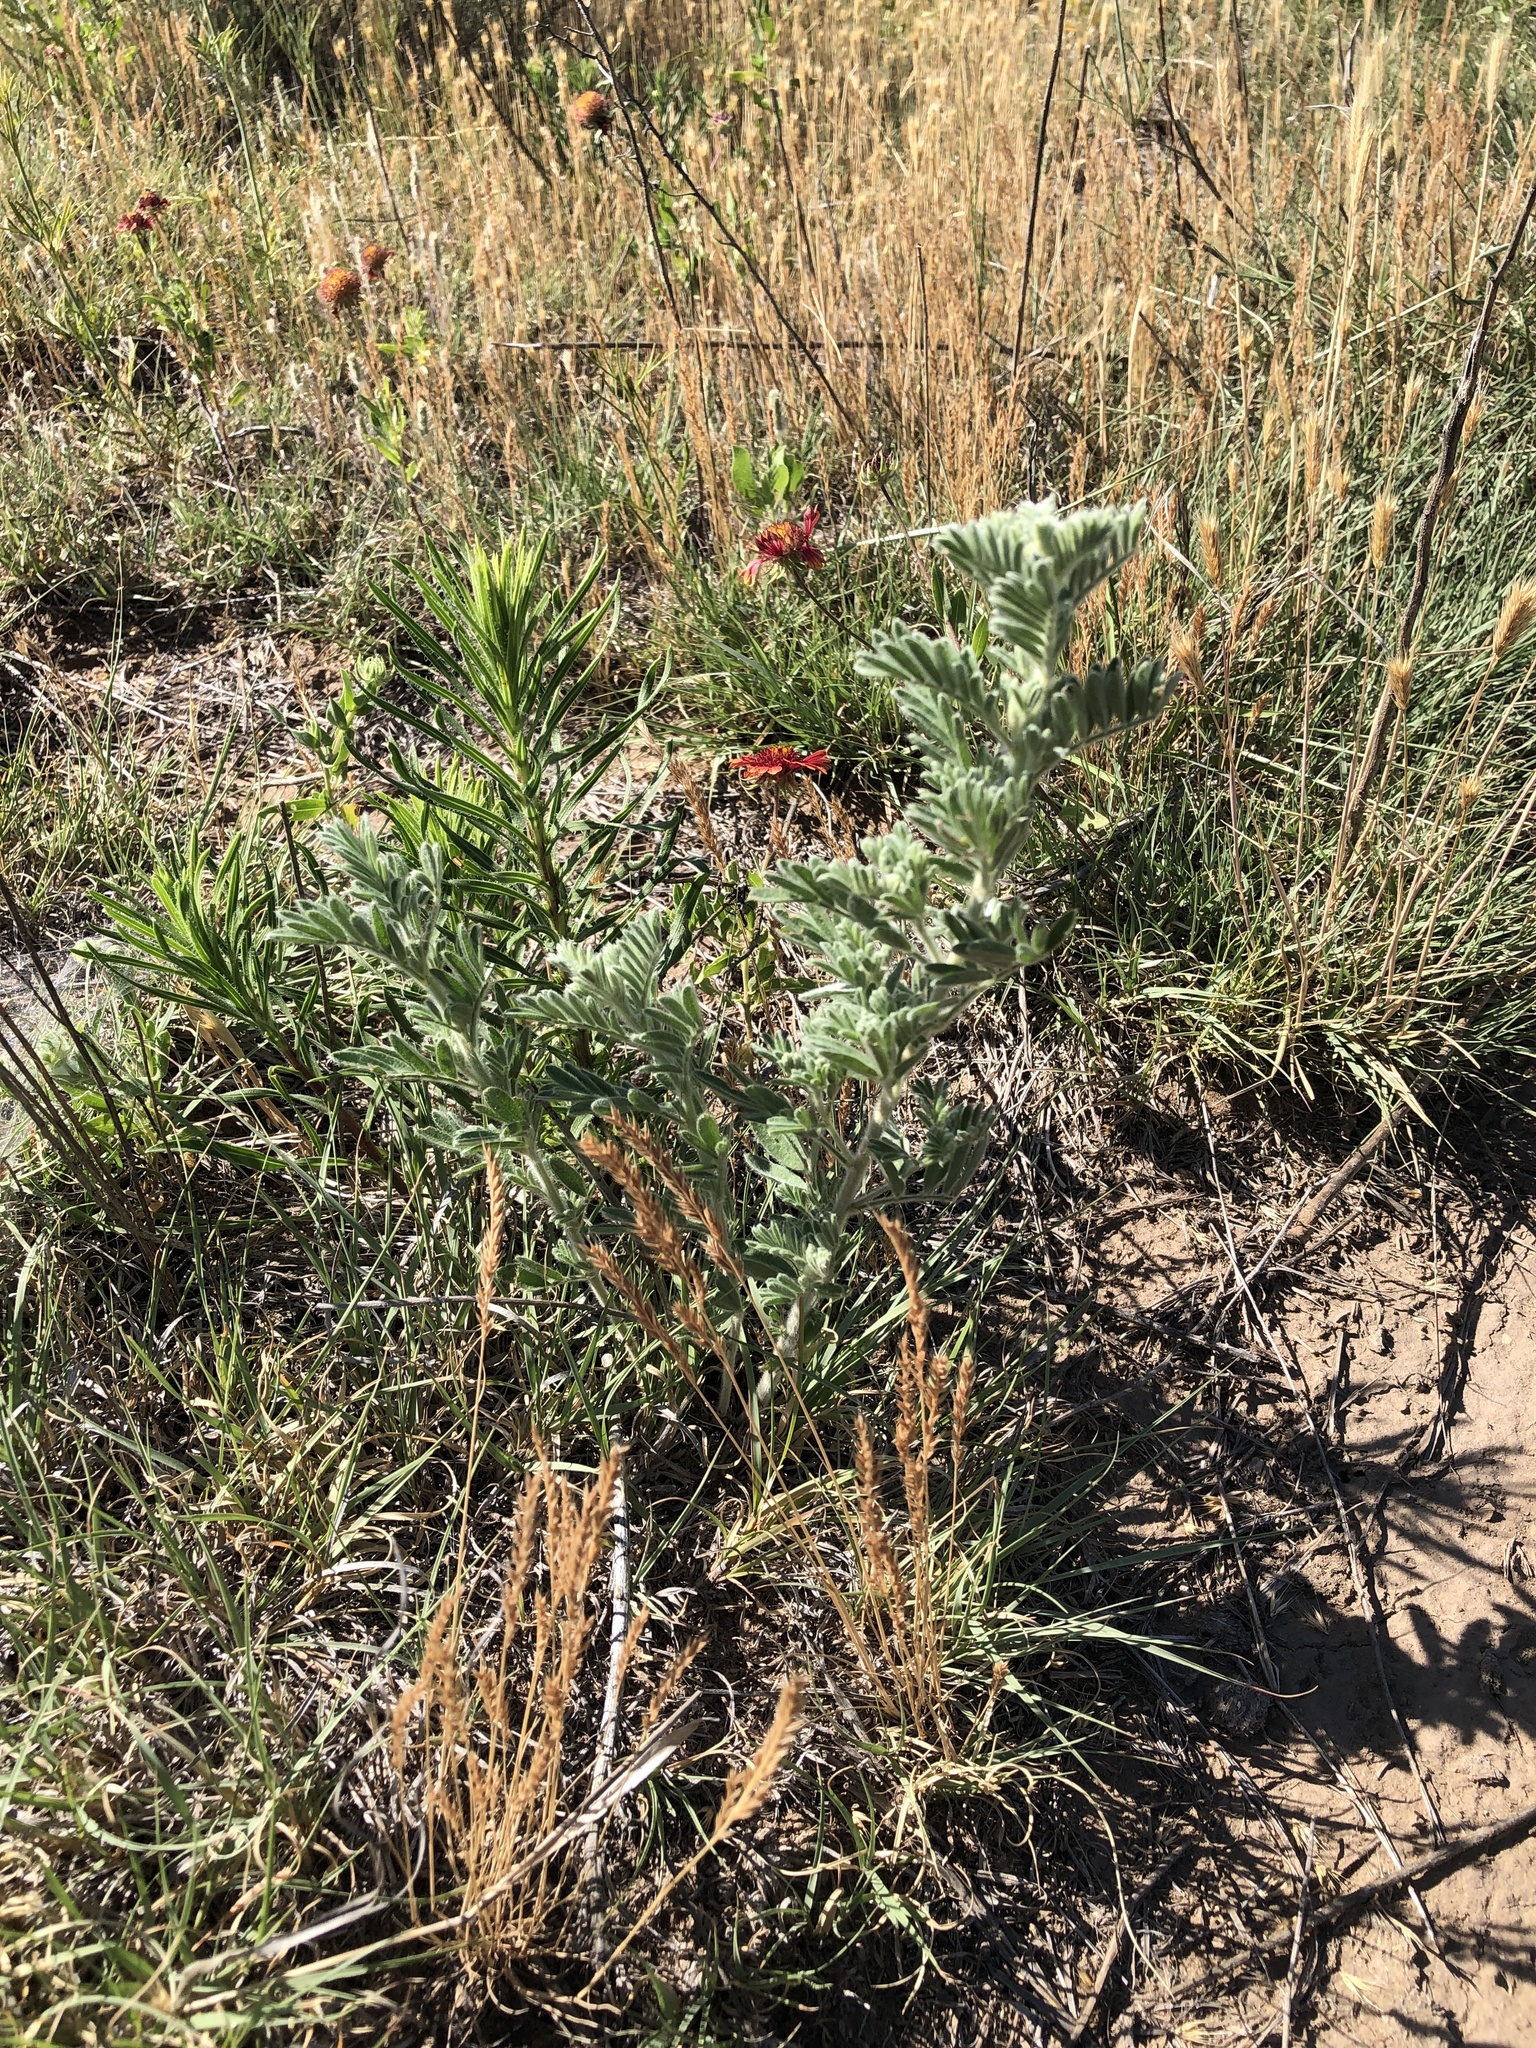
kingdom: Plantae
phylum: Tracheophyta
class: Magnoliopsida
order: Fabales
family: Fabaceae
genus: Dalea
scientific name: Dalea villosa
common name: Silky prairie-clover
